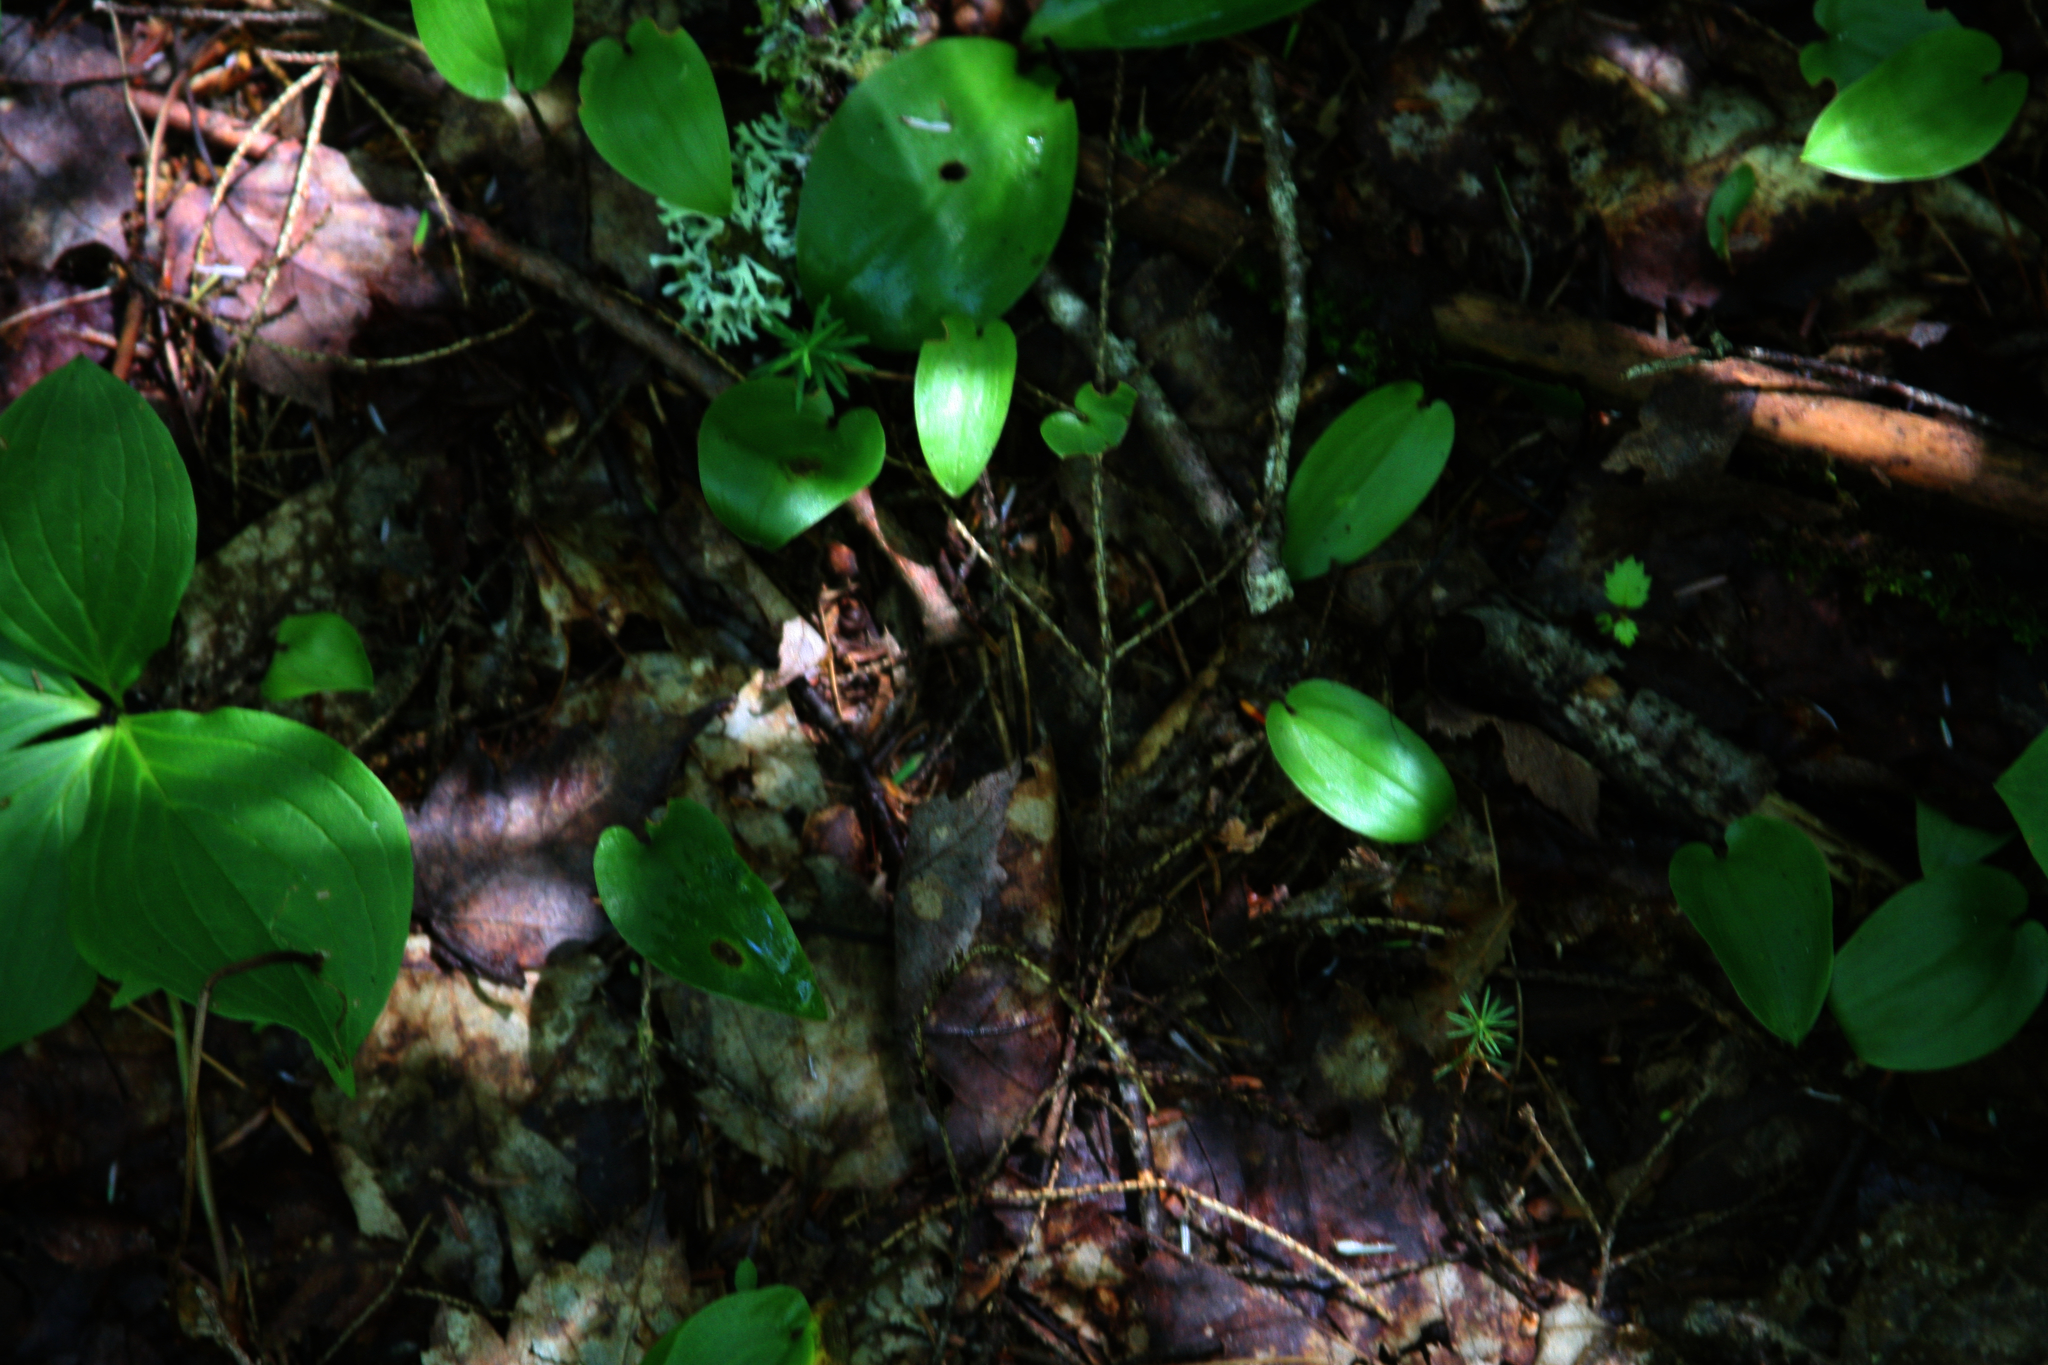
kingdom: Plantae
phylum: Tracheophyta
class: Liliopsida
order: Asparagales
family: Asparagaceae
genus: Maianthemum
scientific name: Maianthemum canadense
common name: False lily-of-the-valley
